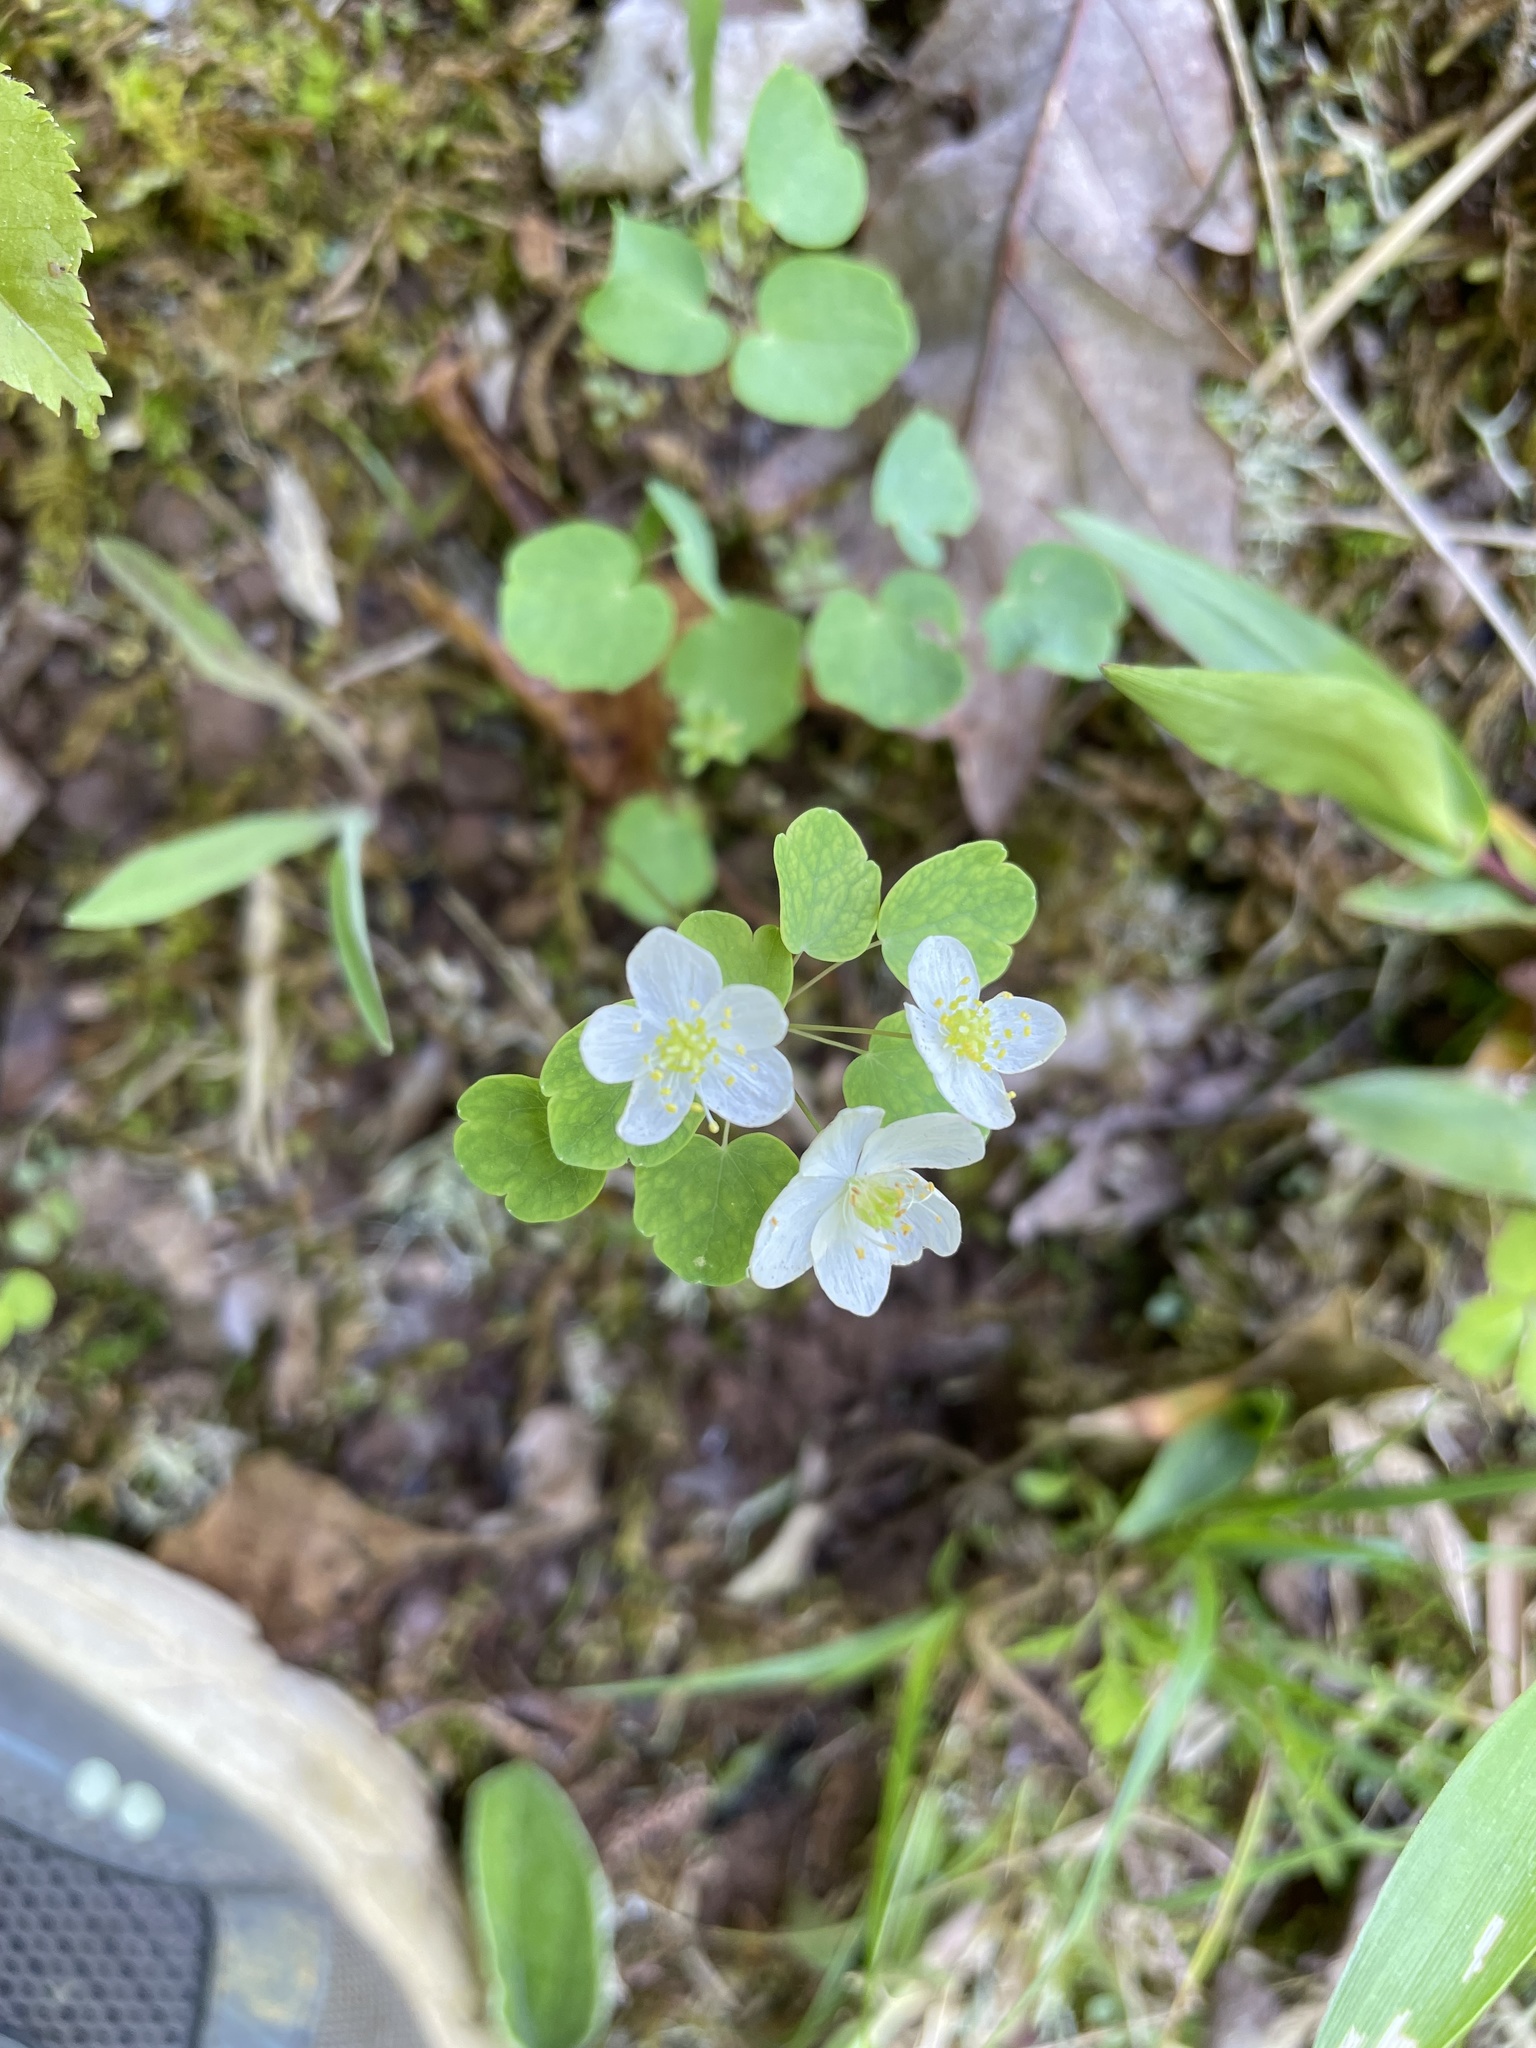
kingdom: Plantae
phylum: Tracheophyta
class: Magnoliopsida
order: Ranunculales
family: Ranunculaceae
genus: Thalictrum
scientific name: Thalictrum thalictroides
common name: Rue-anemone
